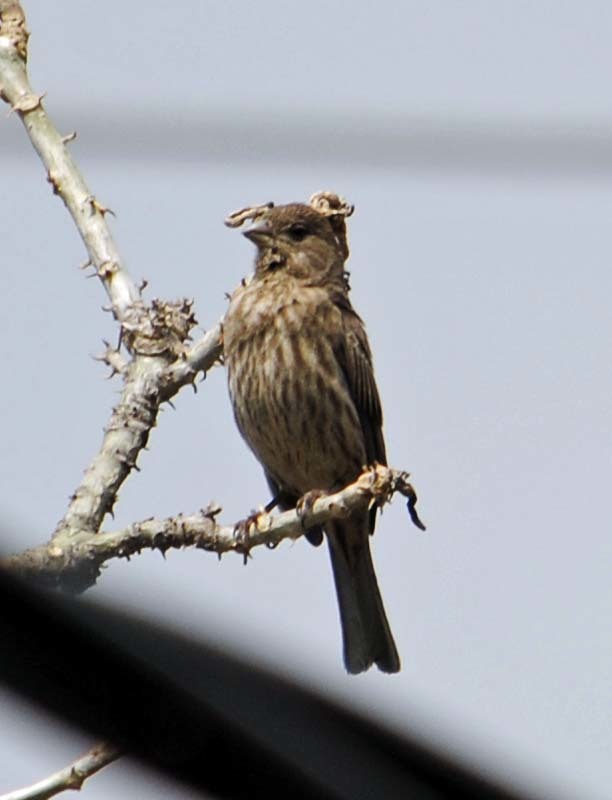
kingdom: Animalia
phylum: Chordata
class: Aves
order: Passeriformes
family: Fringillidae
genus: Haemorhous
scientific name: Haemorhous mexicanus
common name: House finch
